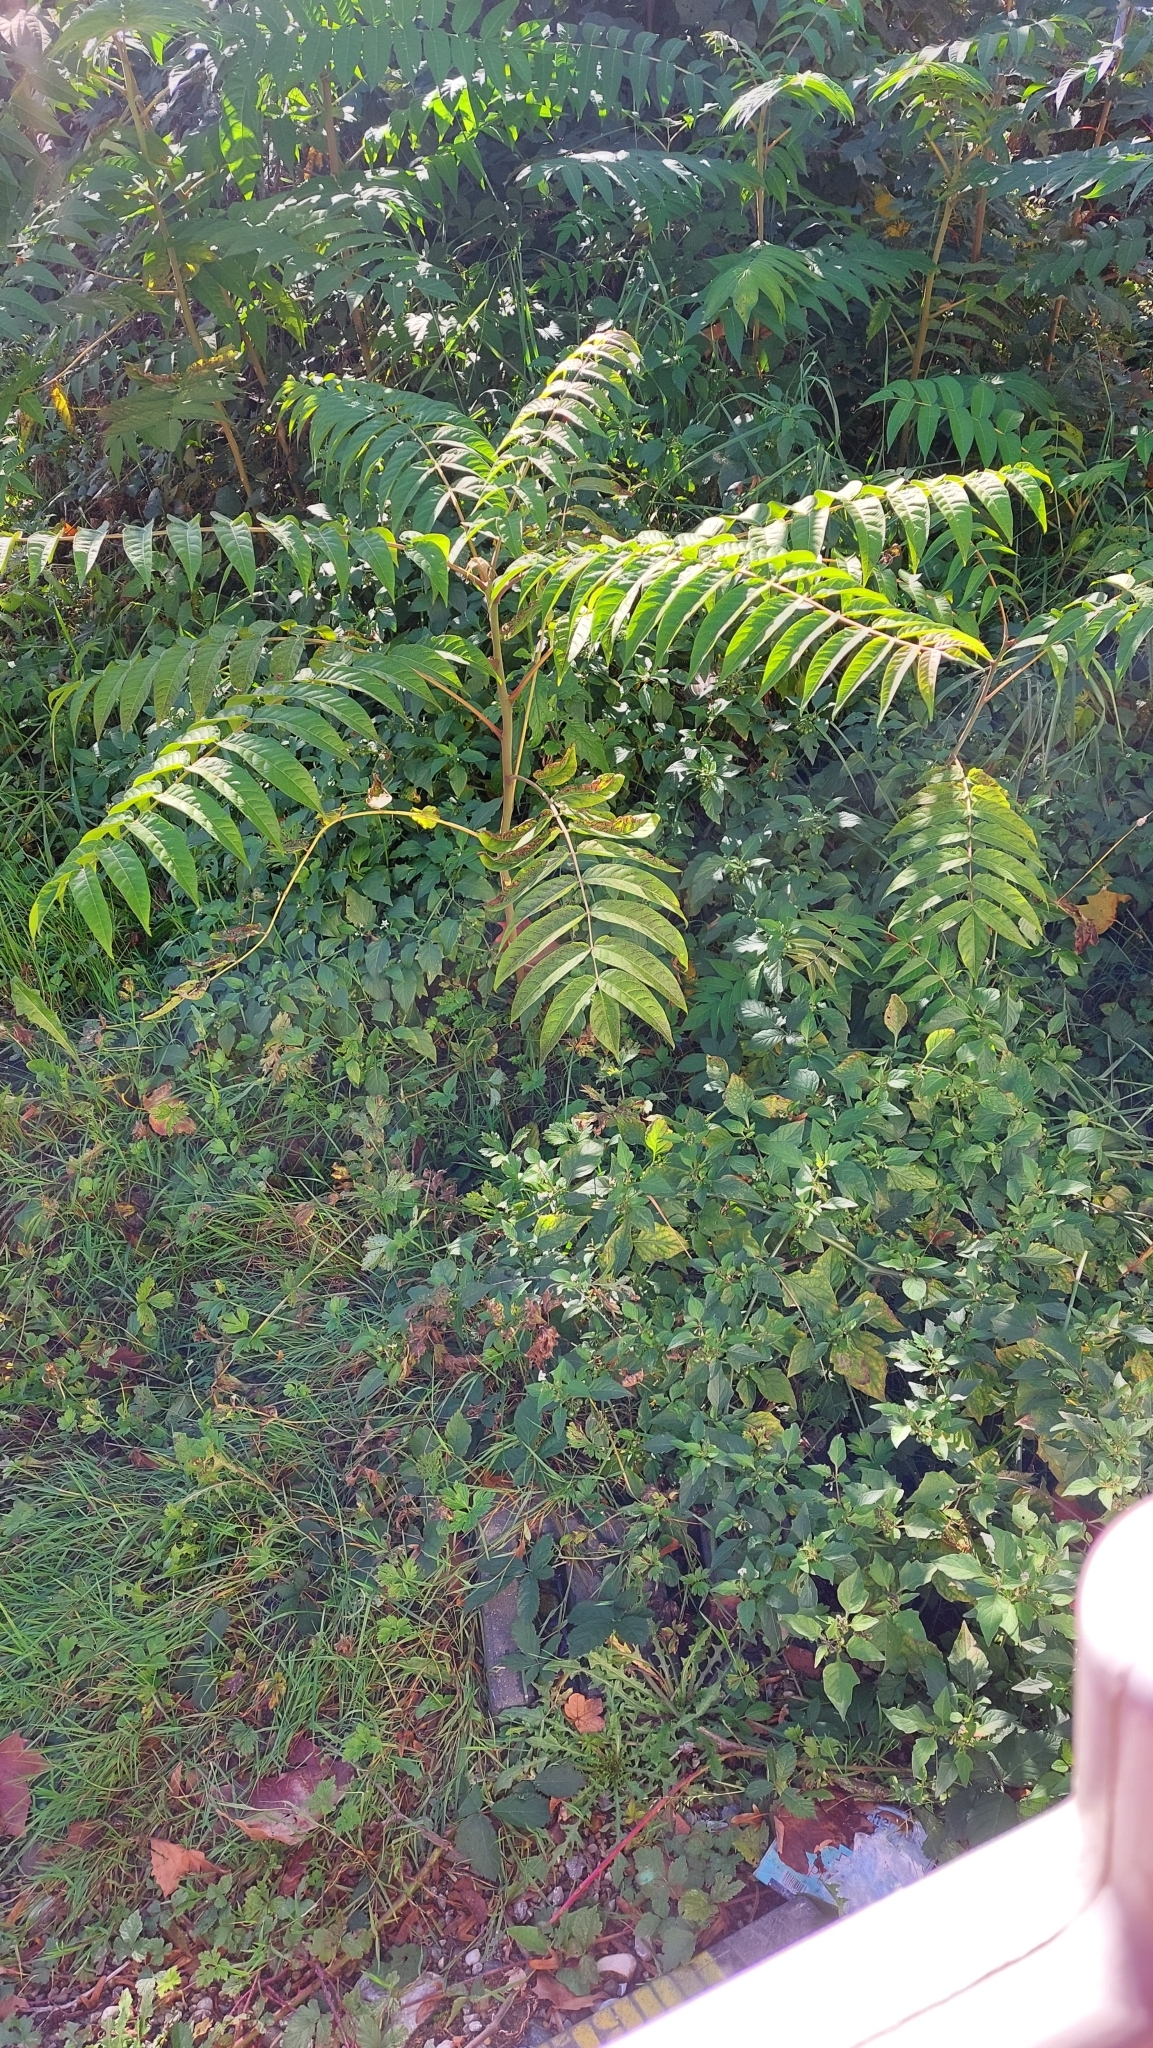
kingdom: Plantae
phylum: Tracheophyta
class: Magnoliopsida
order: Sapindales
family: Simaroubaceae
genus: Ailanthus
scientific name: Ailanthus altissima
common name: Tree-of-heaven
